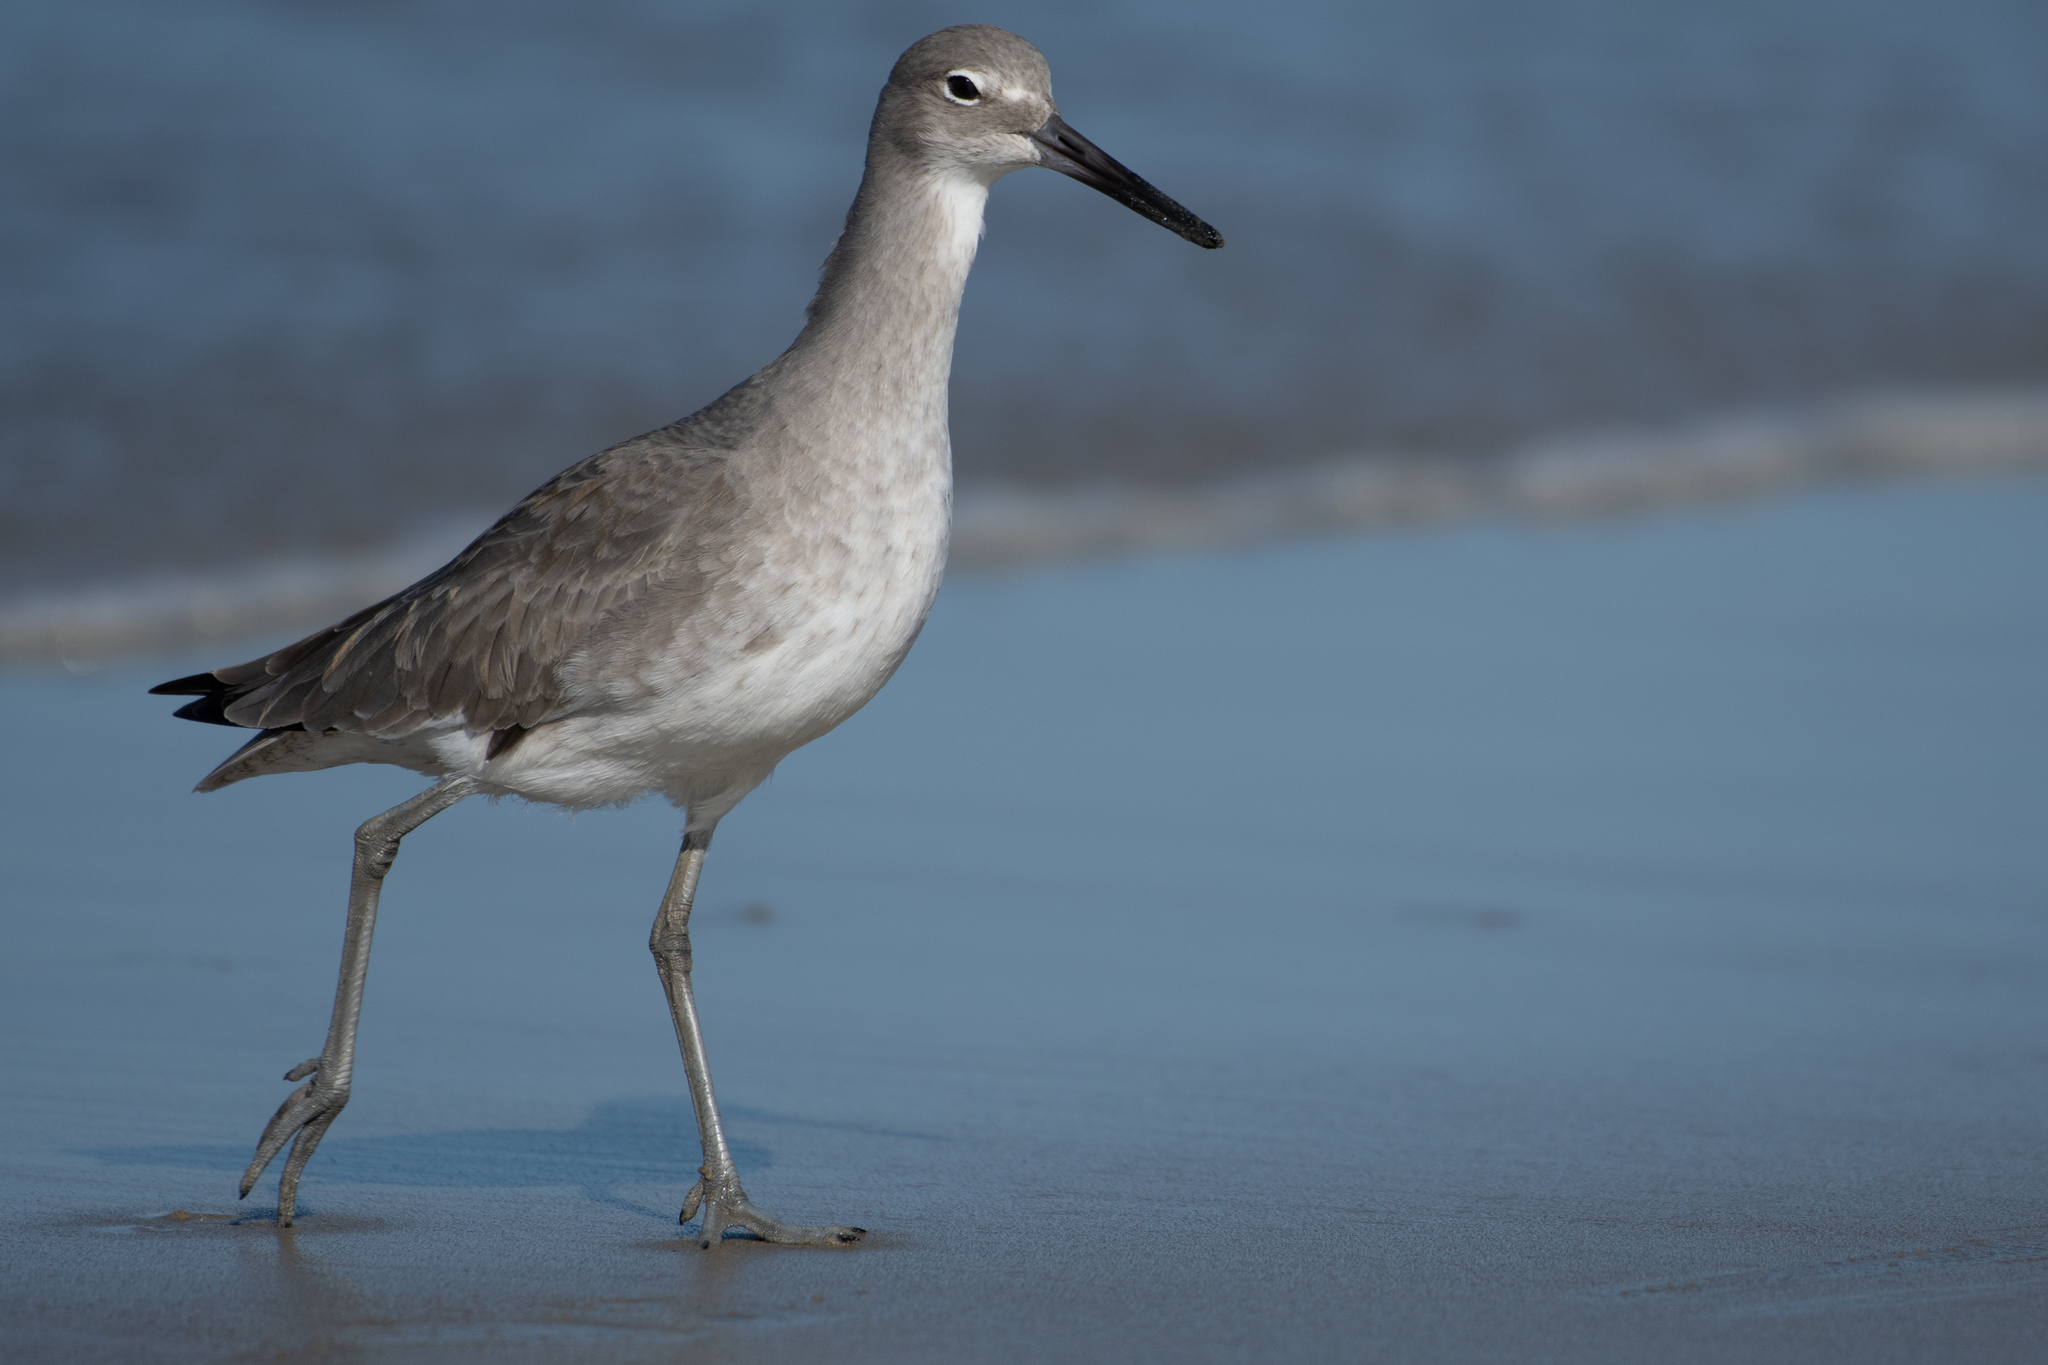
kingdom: Animalia
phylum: Chordata
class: Aves
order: Charadriiformes
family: Scolopacidae
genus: Tringa
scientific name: Tringa semipalmata
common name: Willet
